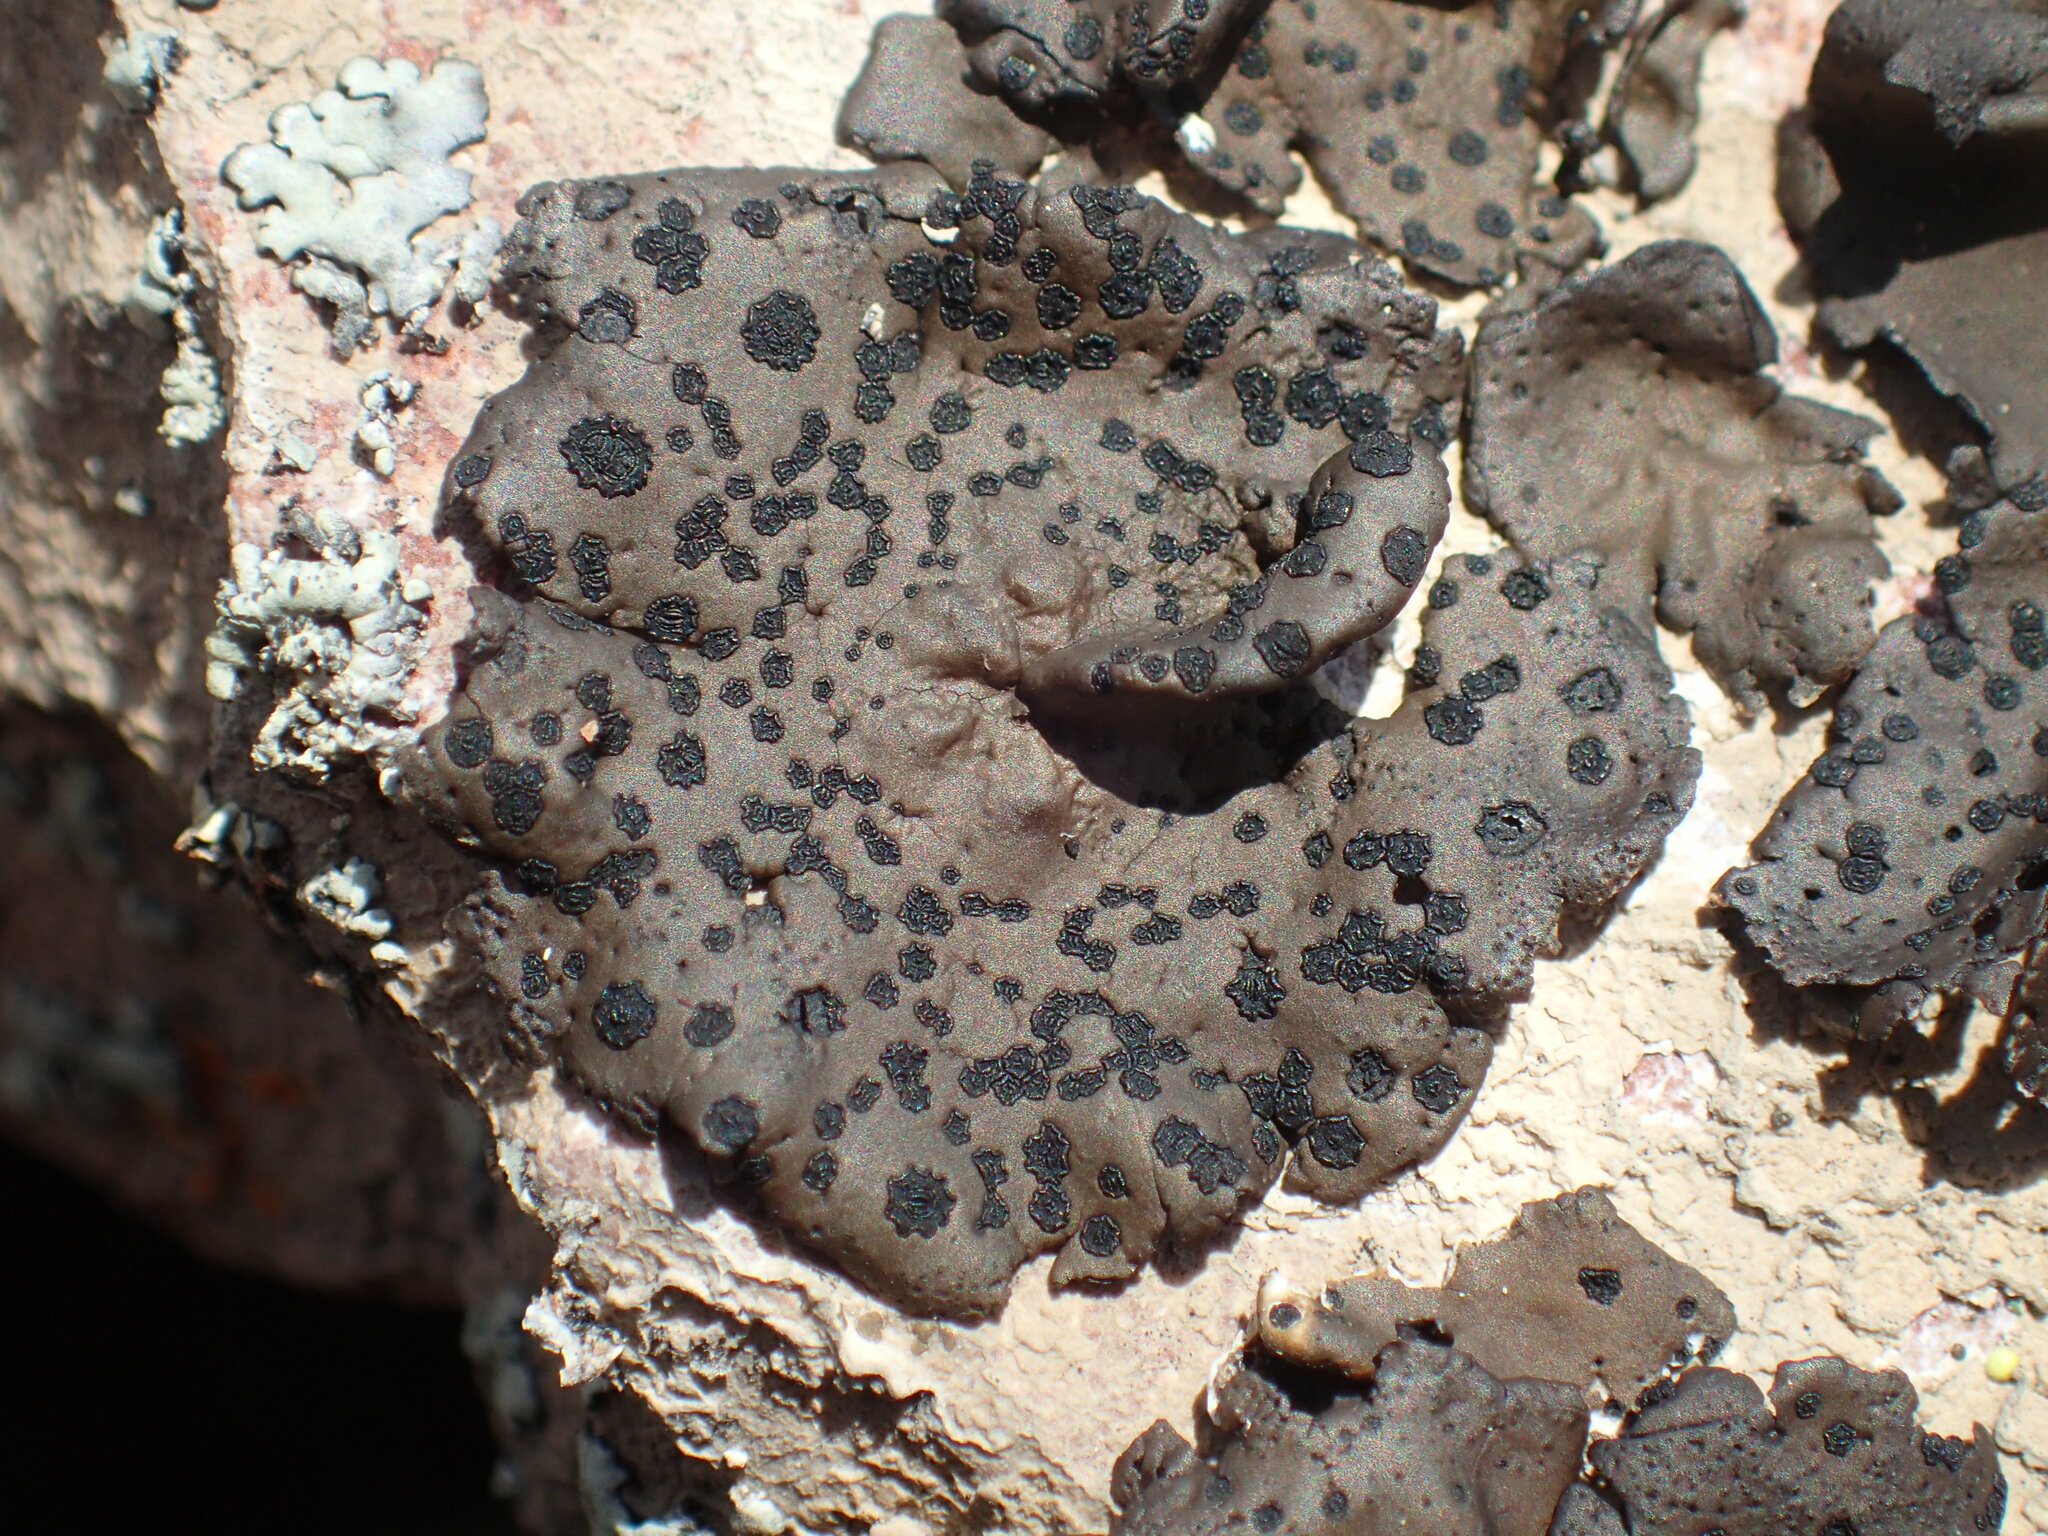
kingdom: Fungi
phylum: Ascomycota
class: Lecanoromycetes
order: Umbilicariales
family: Umbilicariaceae
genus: Umbilicaria
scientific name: Umbilicaria phaea
